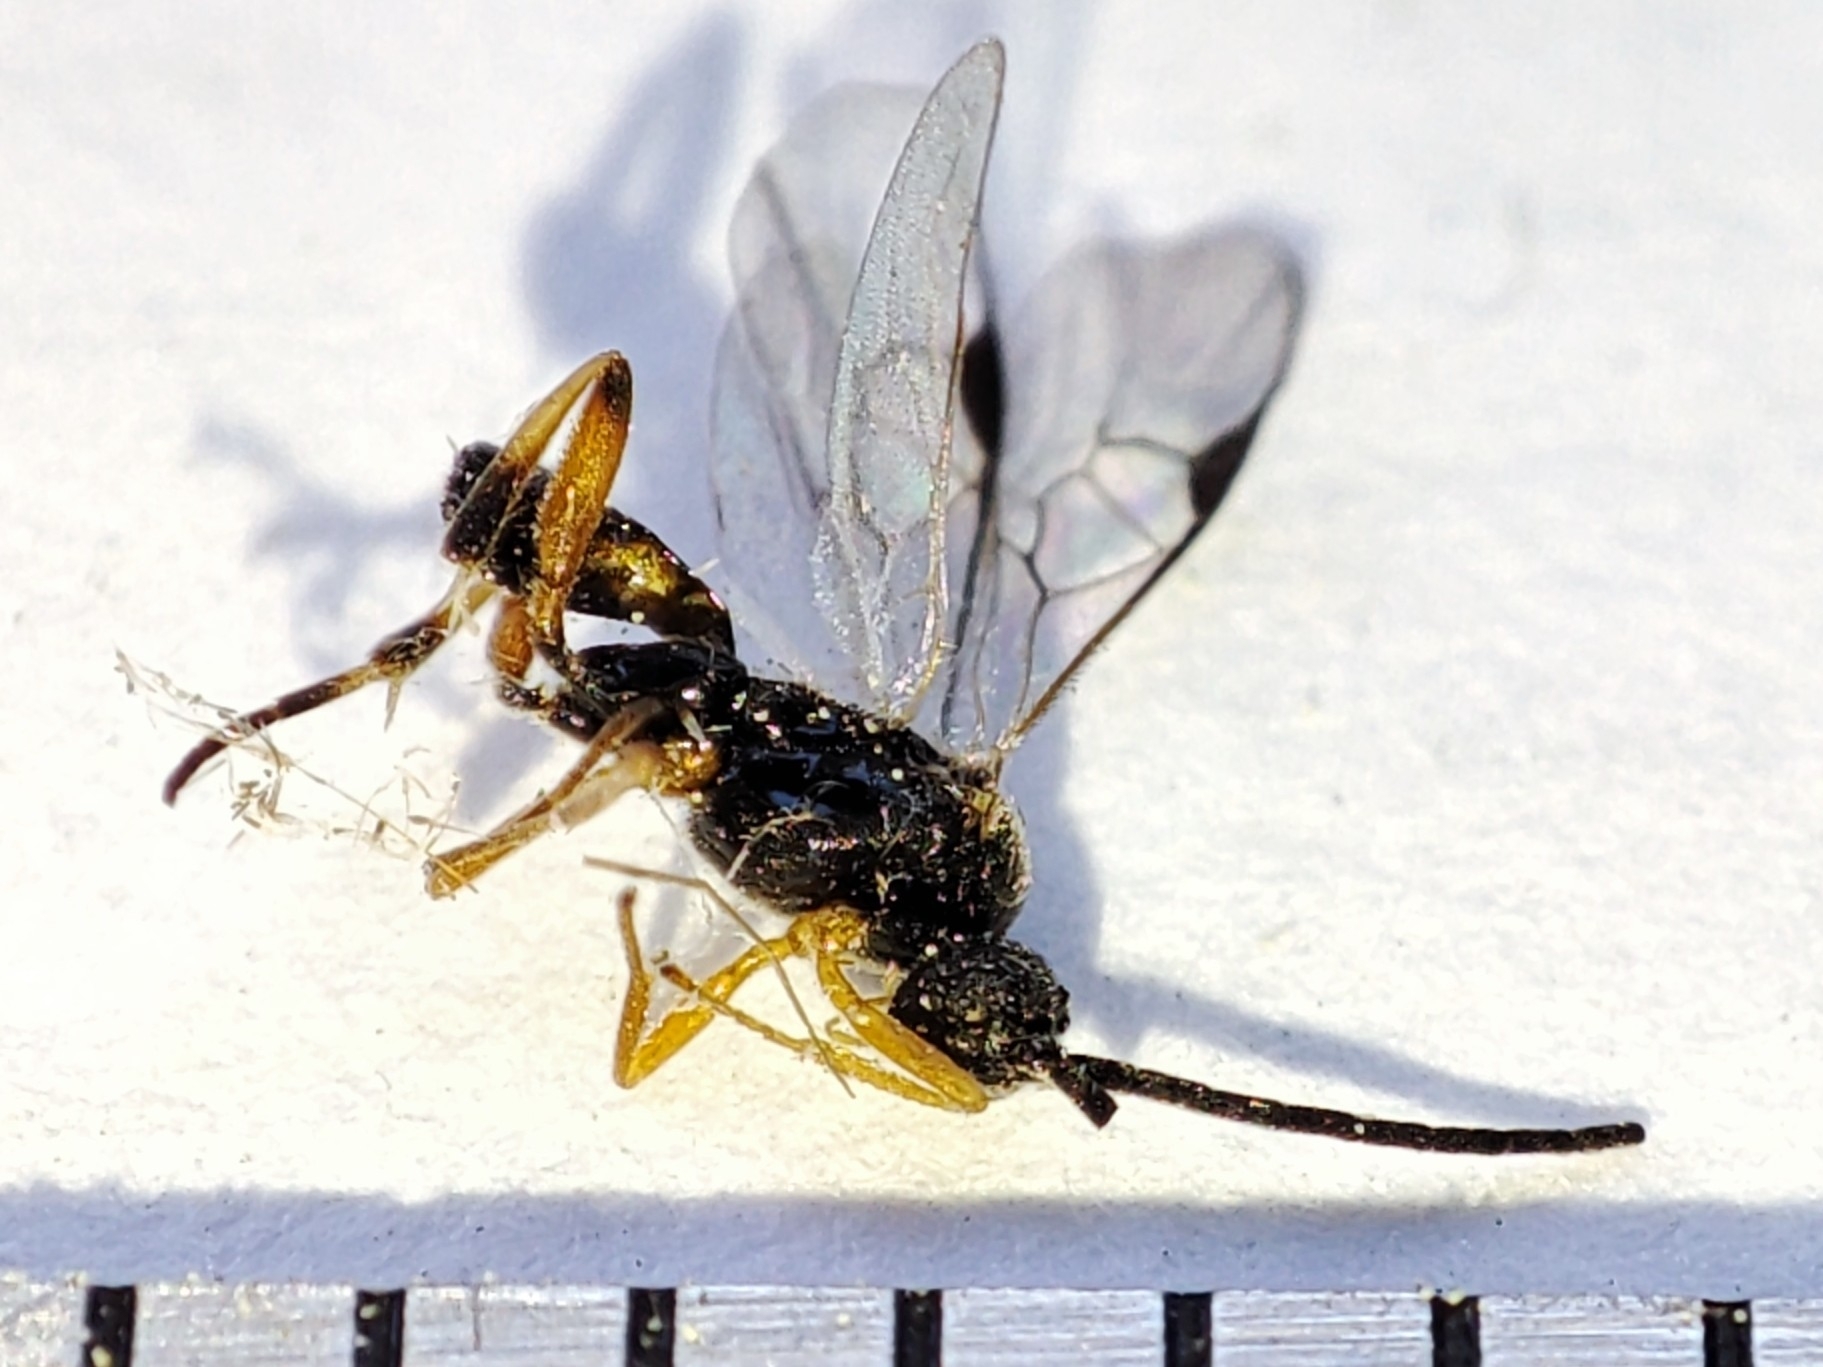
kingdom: Animalia
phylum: Arthropoda
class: Insecta
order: Hymenoptera
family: Braconidae
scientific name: Braconidae
